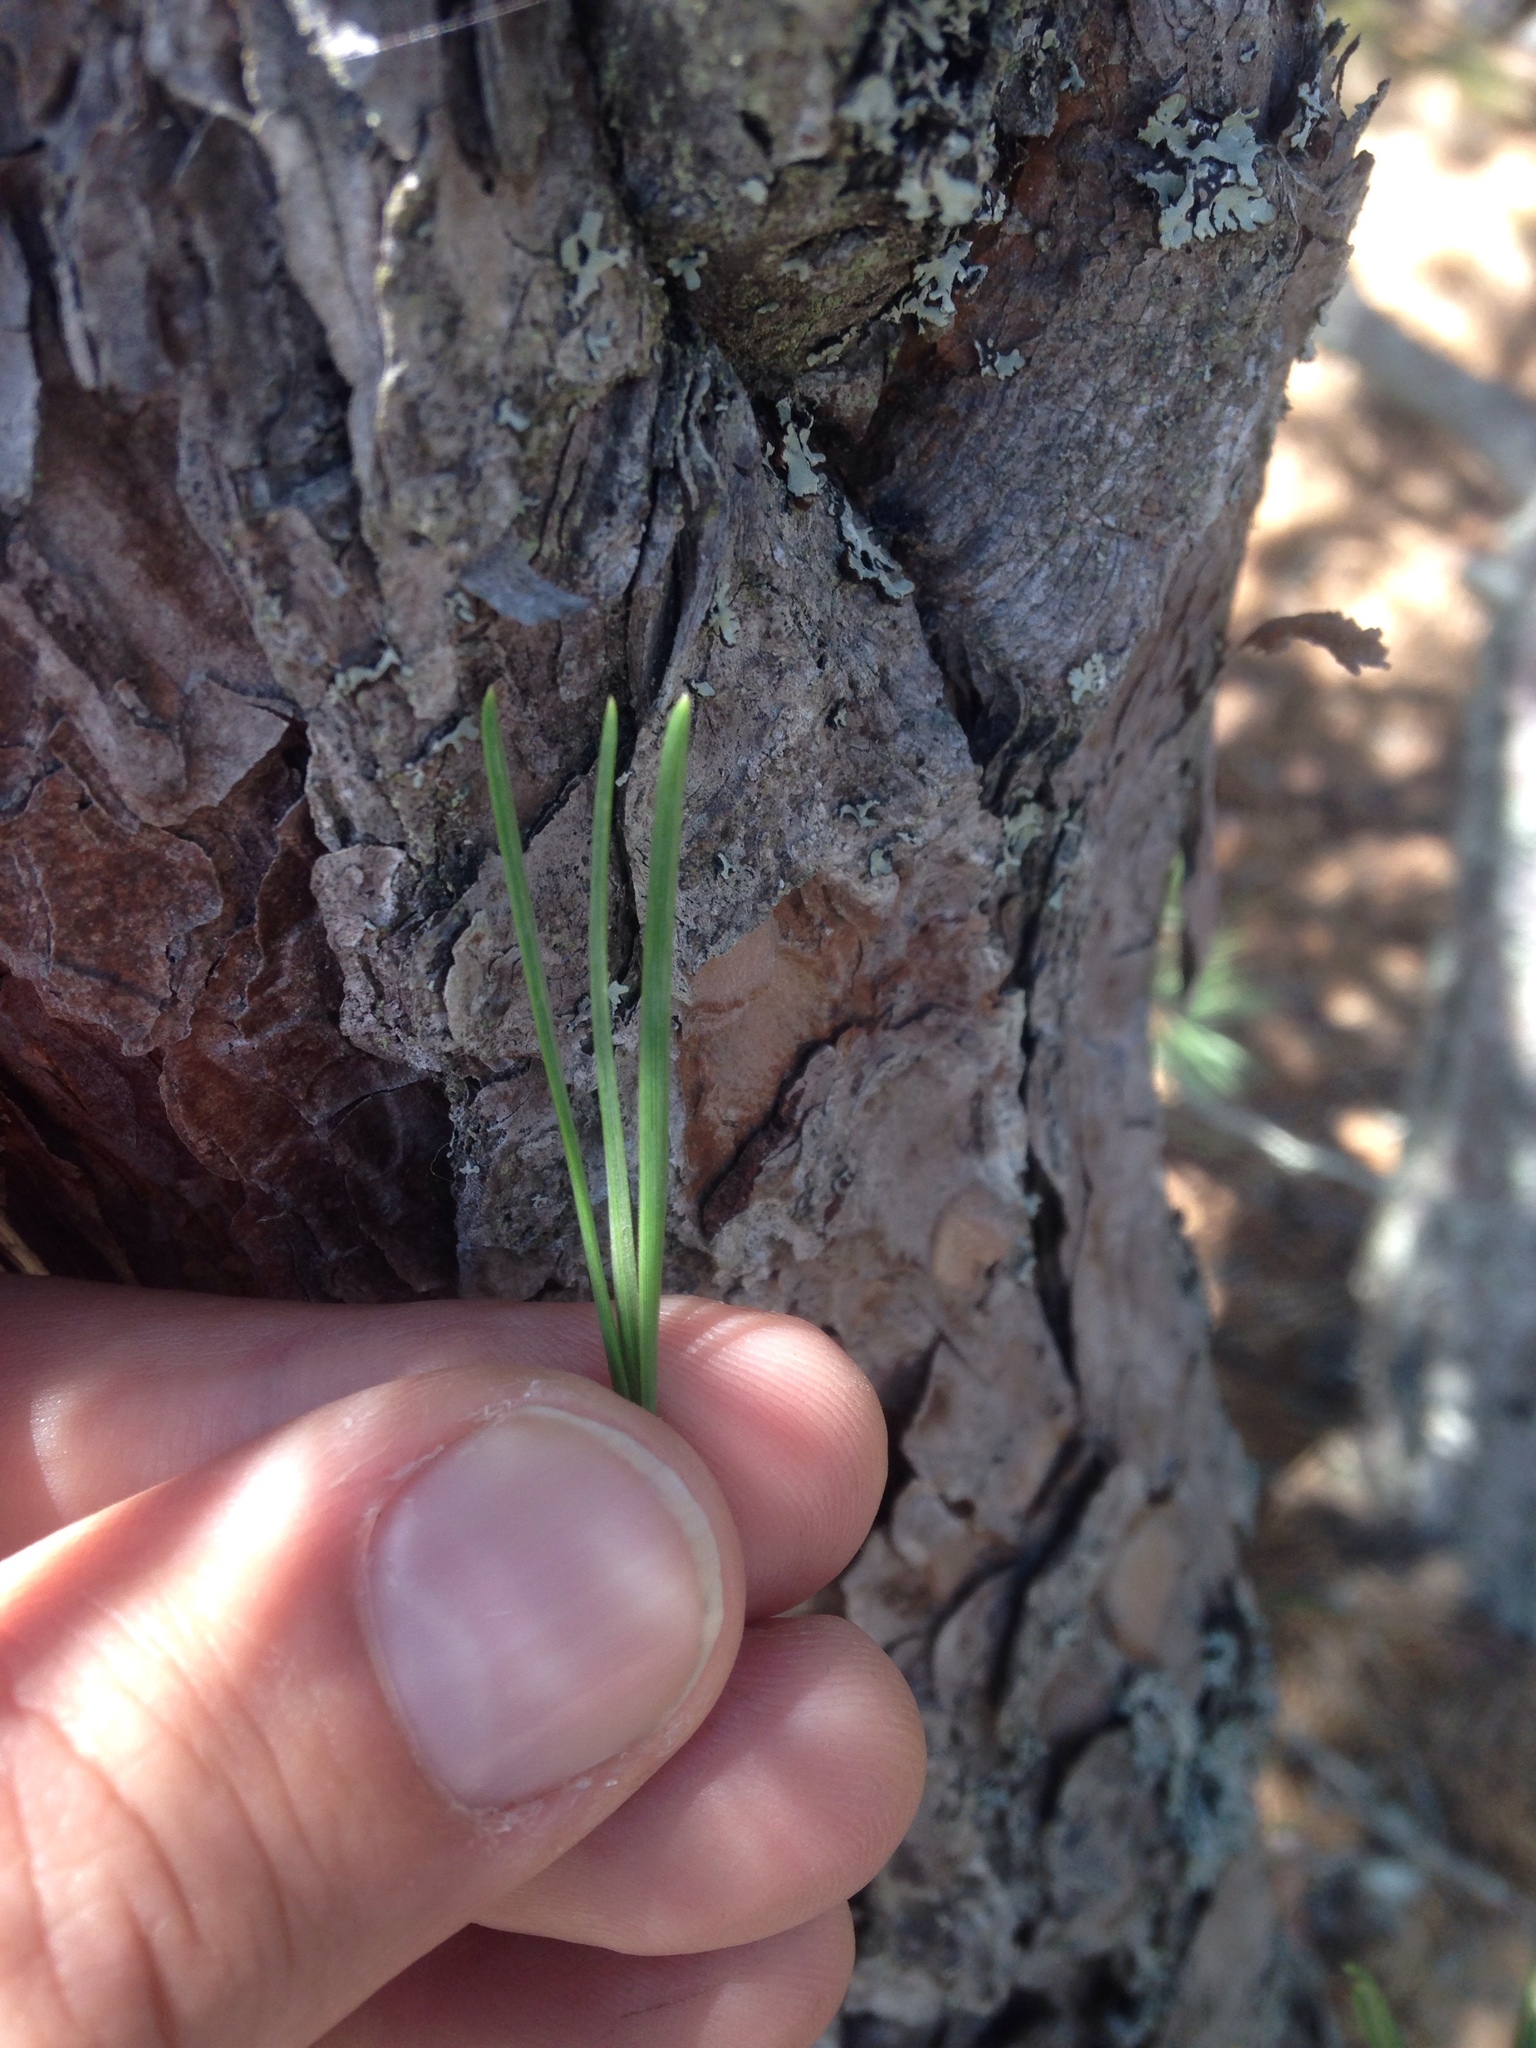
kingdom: Plantae
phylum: Tracheophyta
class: Pinopsida
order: Pinales
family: Pinaceae
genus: Pinus
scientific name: Pinus rigida
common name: Pitch pine
